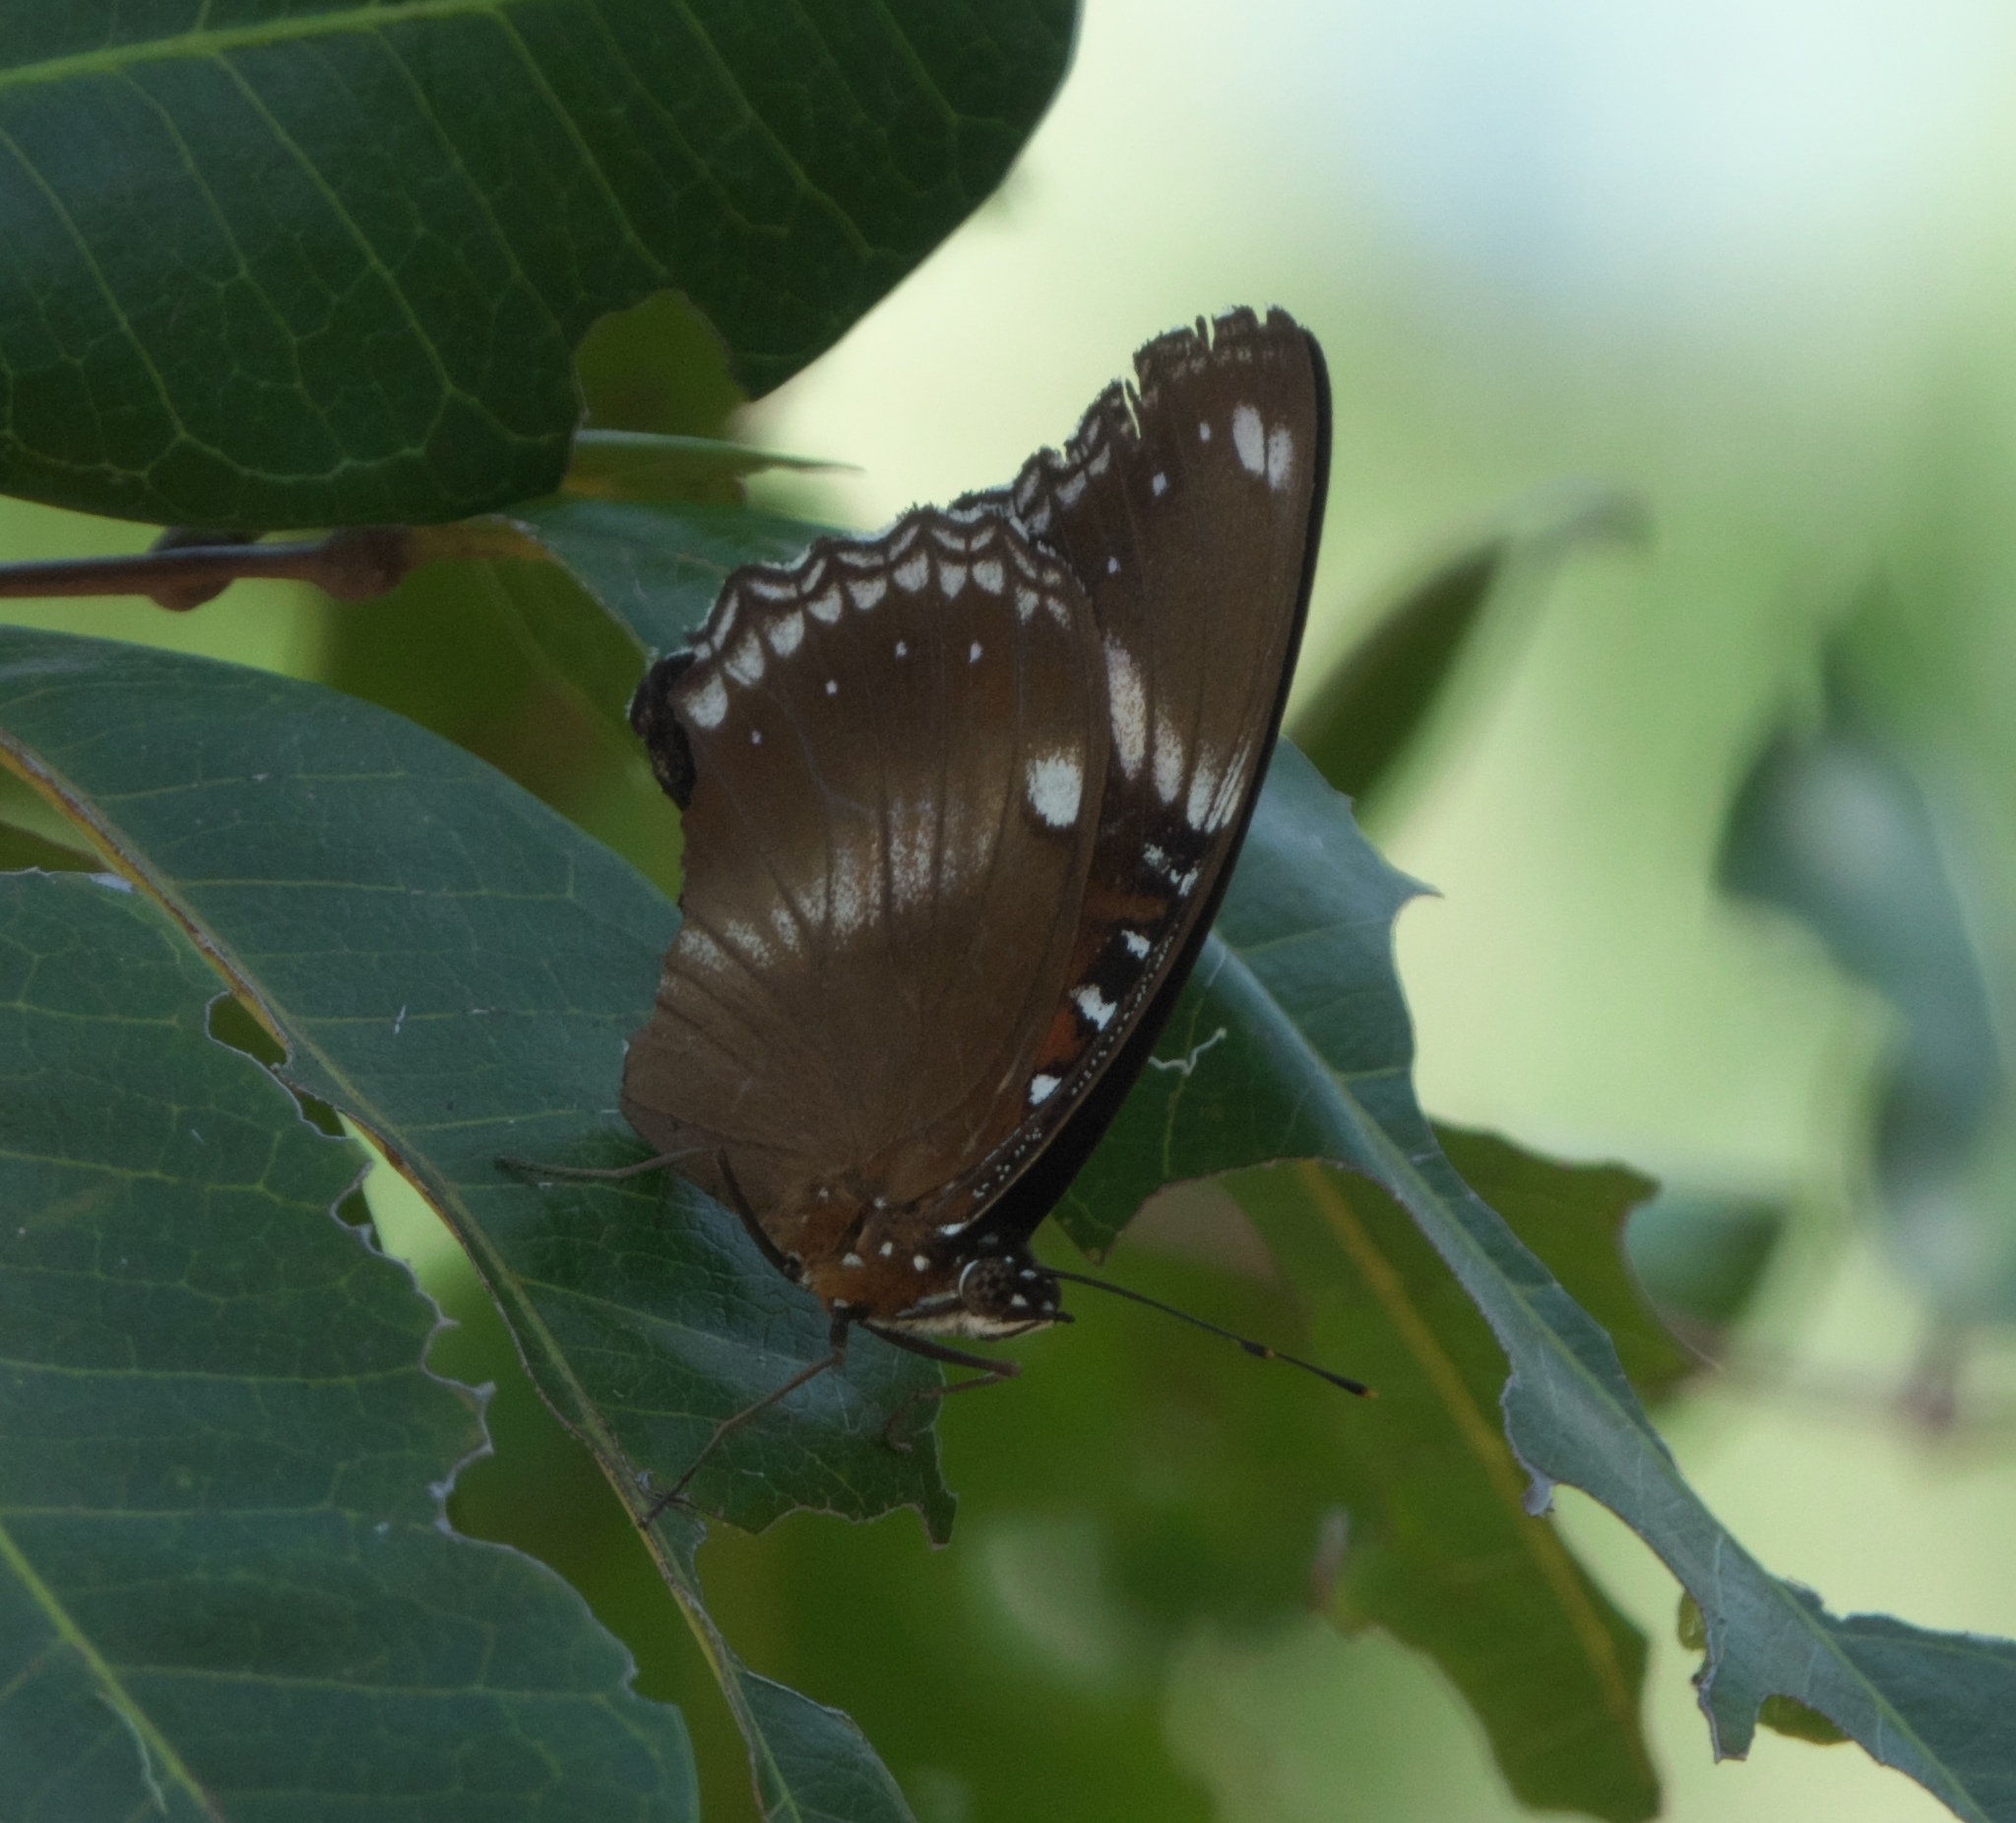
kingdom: Animalia
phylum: Arthropoda
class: Insecta
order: Lepidoptera
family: Nymphalidae
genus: Hypolimnas
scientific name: Hypolimnas bolina
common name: Great eggfly
